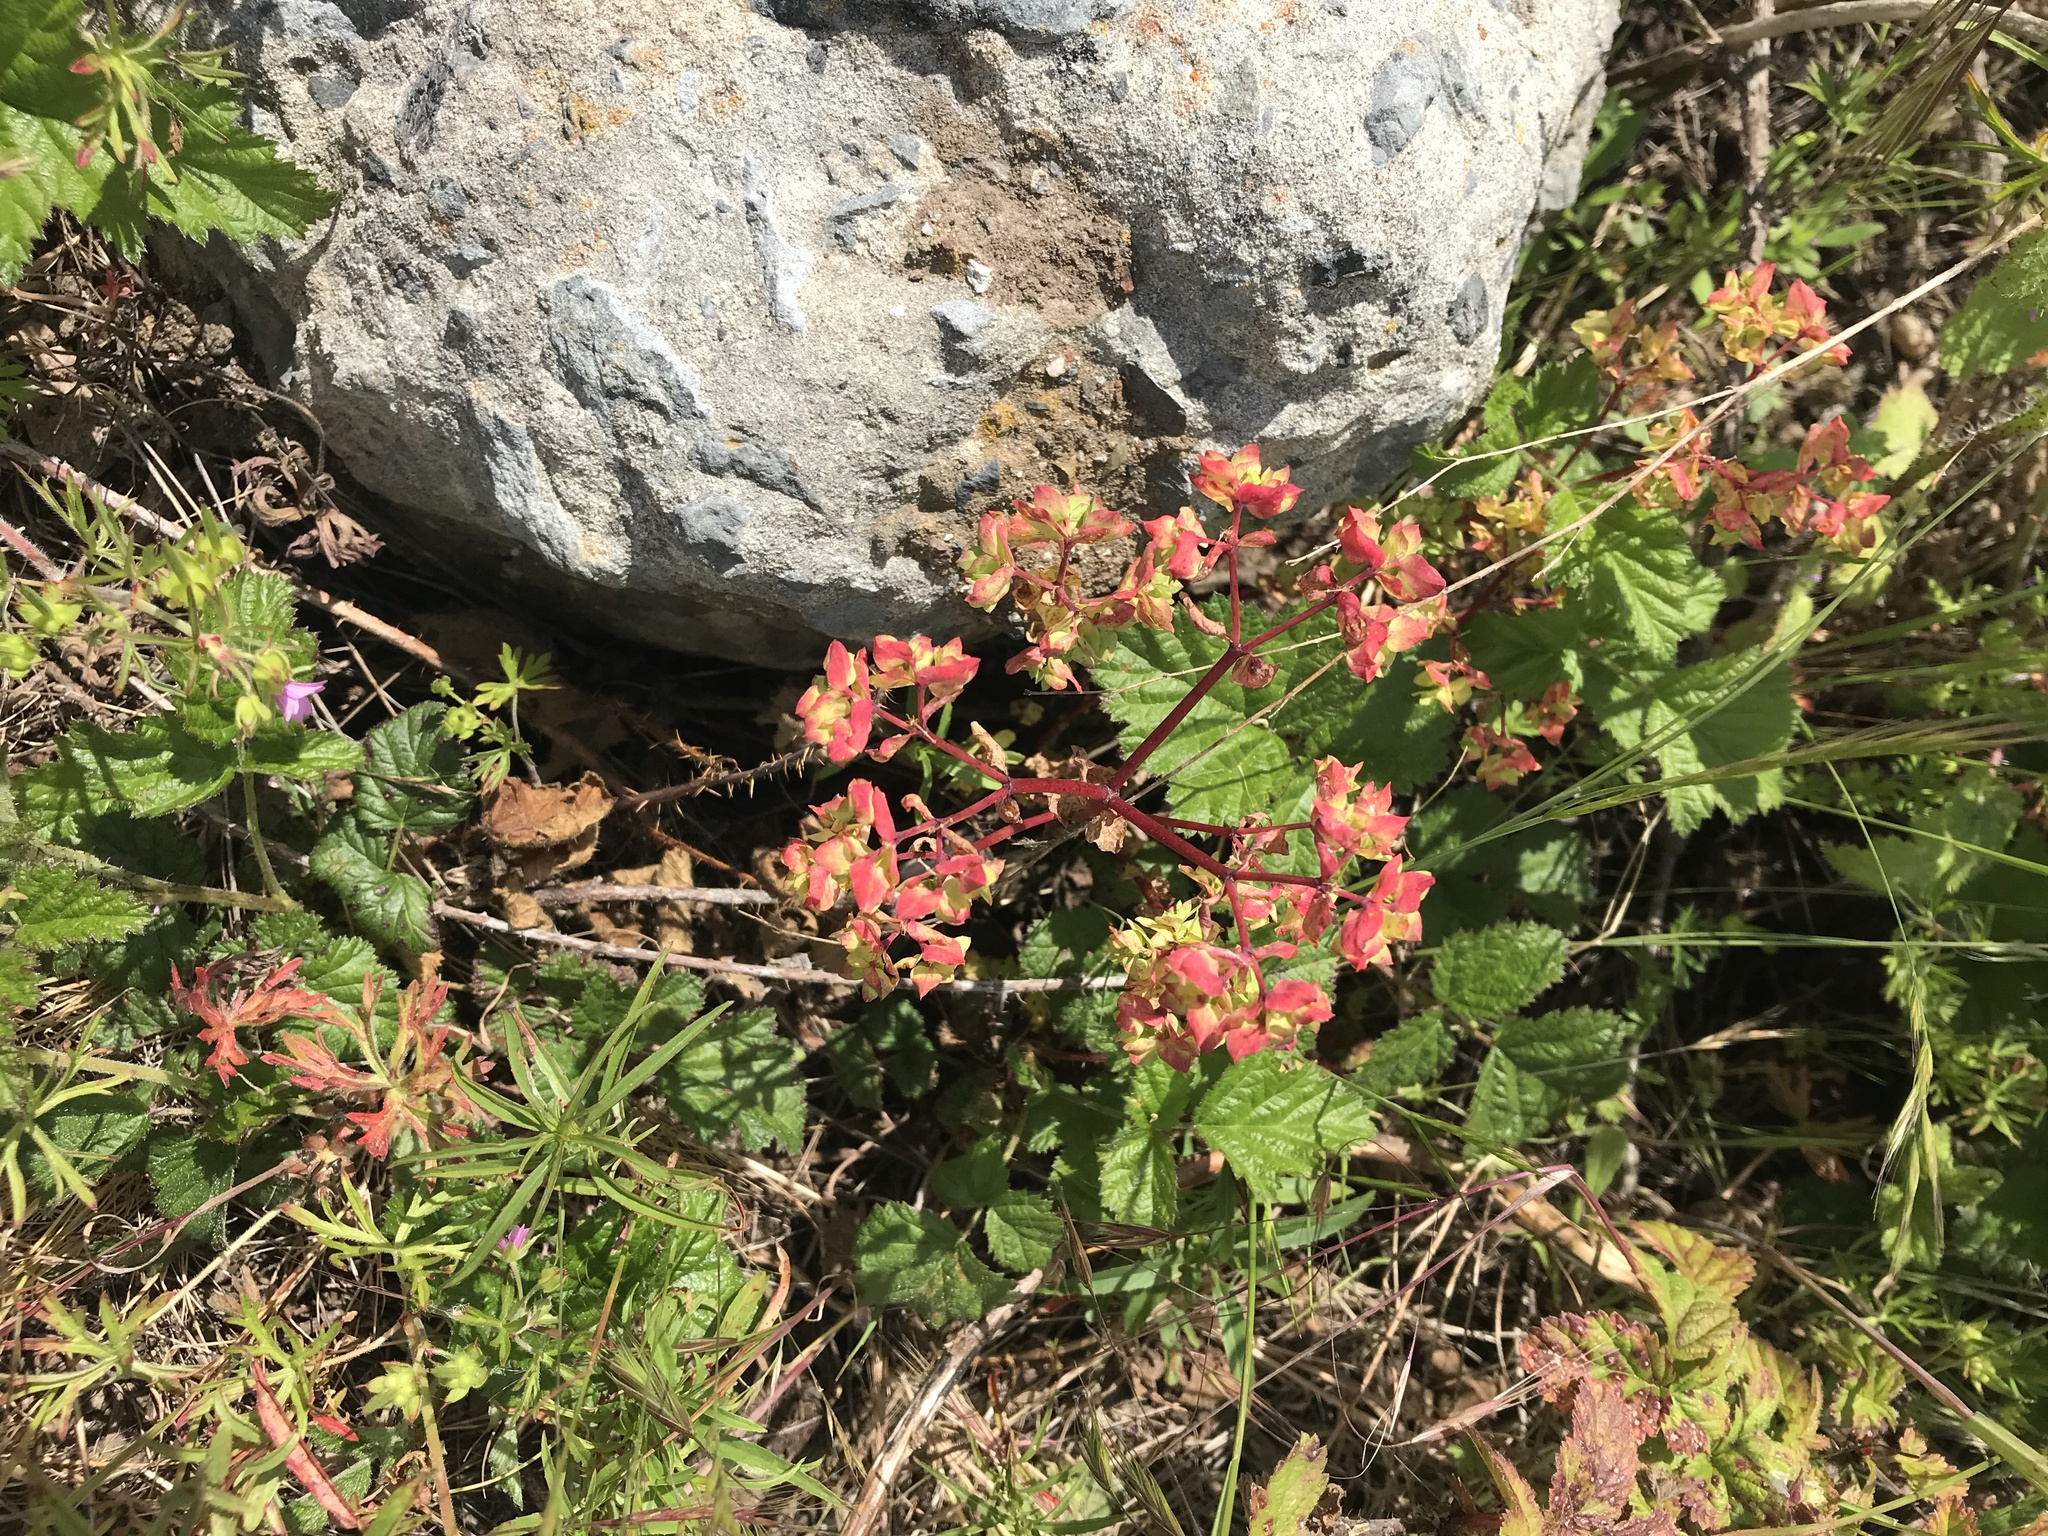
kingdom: Plantae
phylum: Tracheophyta
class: Magnoliopsida
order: Malpighiales
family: Euphorbiaceae
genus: Euphorbia
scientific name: Euphorbia peplus
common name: Petty spurge
